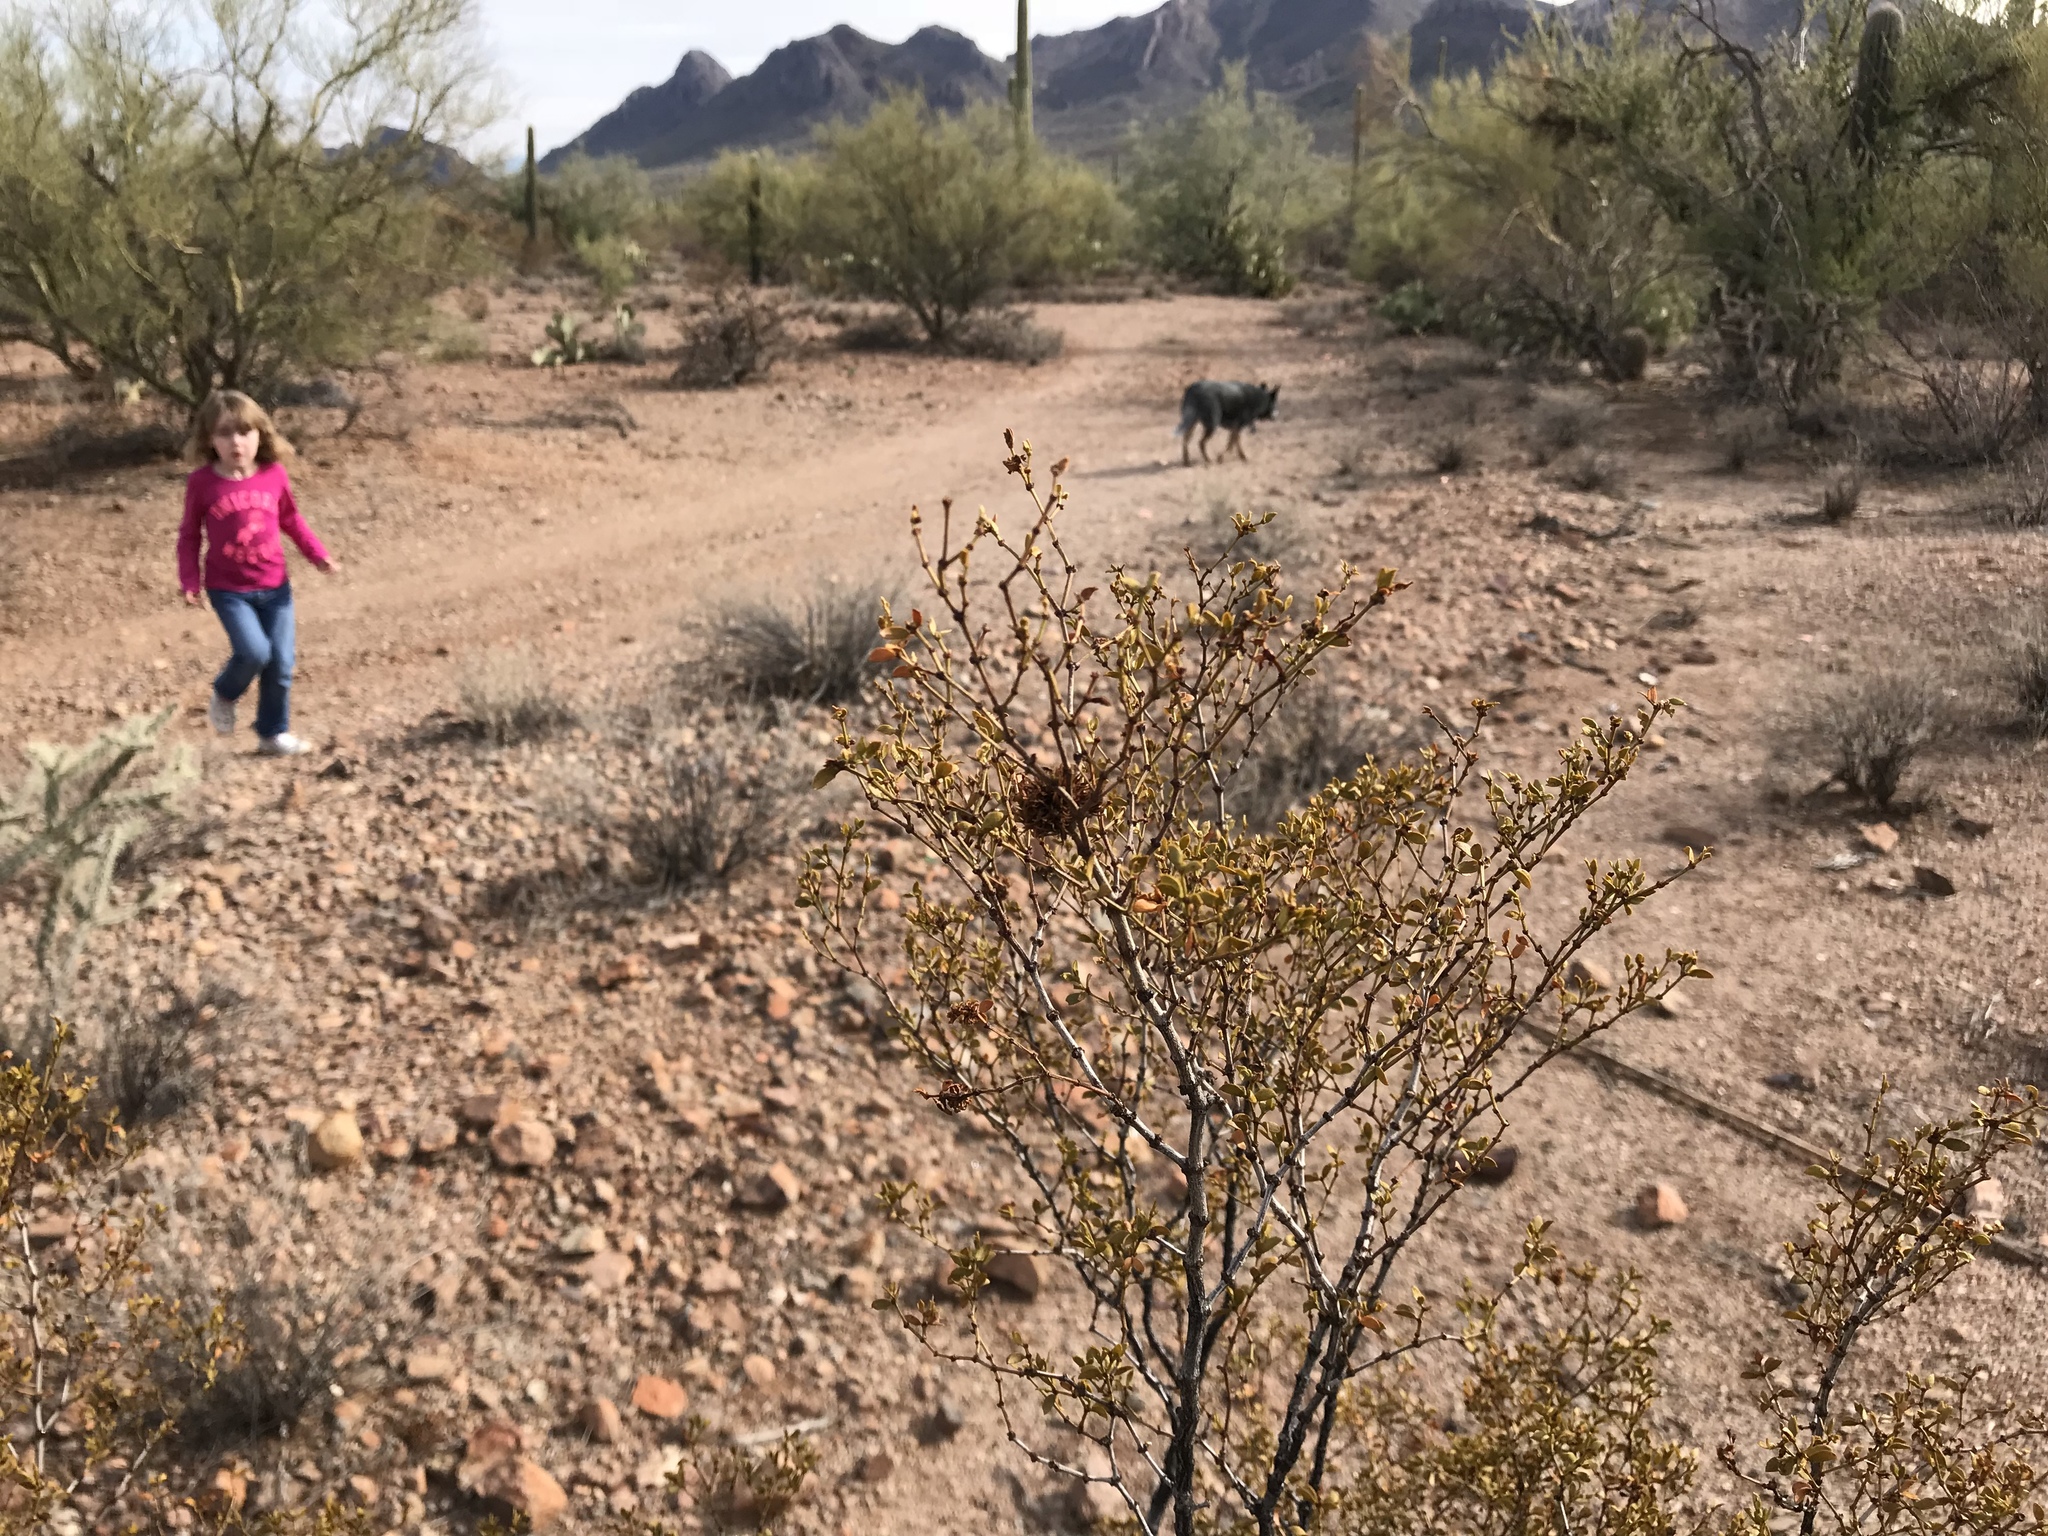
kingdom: Plantae
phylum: Tracheophyta
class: Magnoliopsida
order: Zygophyllales
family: Zygophyllaceae
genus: Larrea
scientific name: Larrea tridentata
